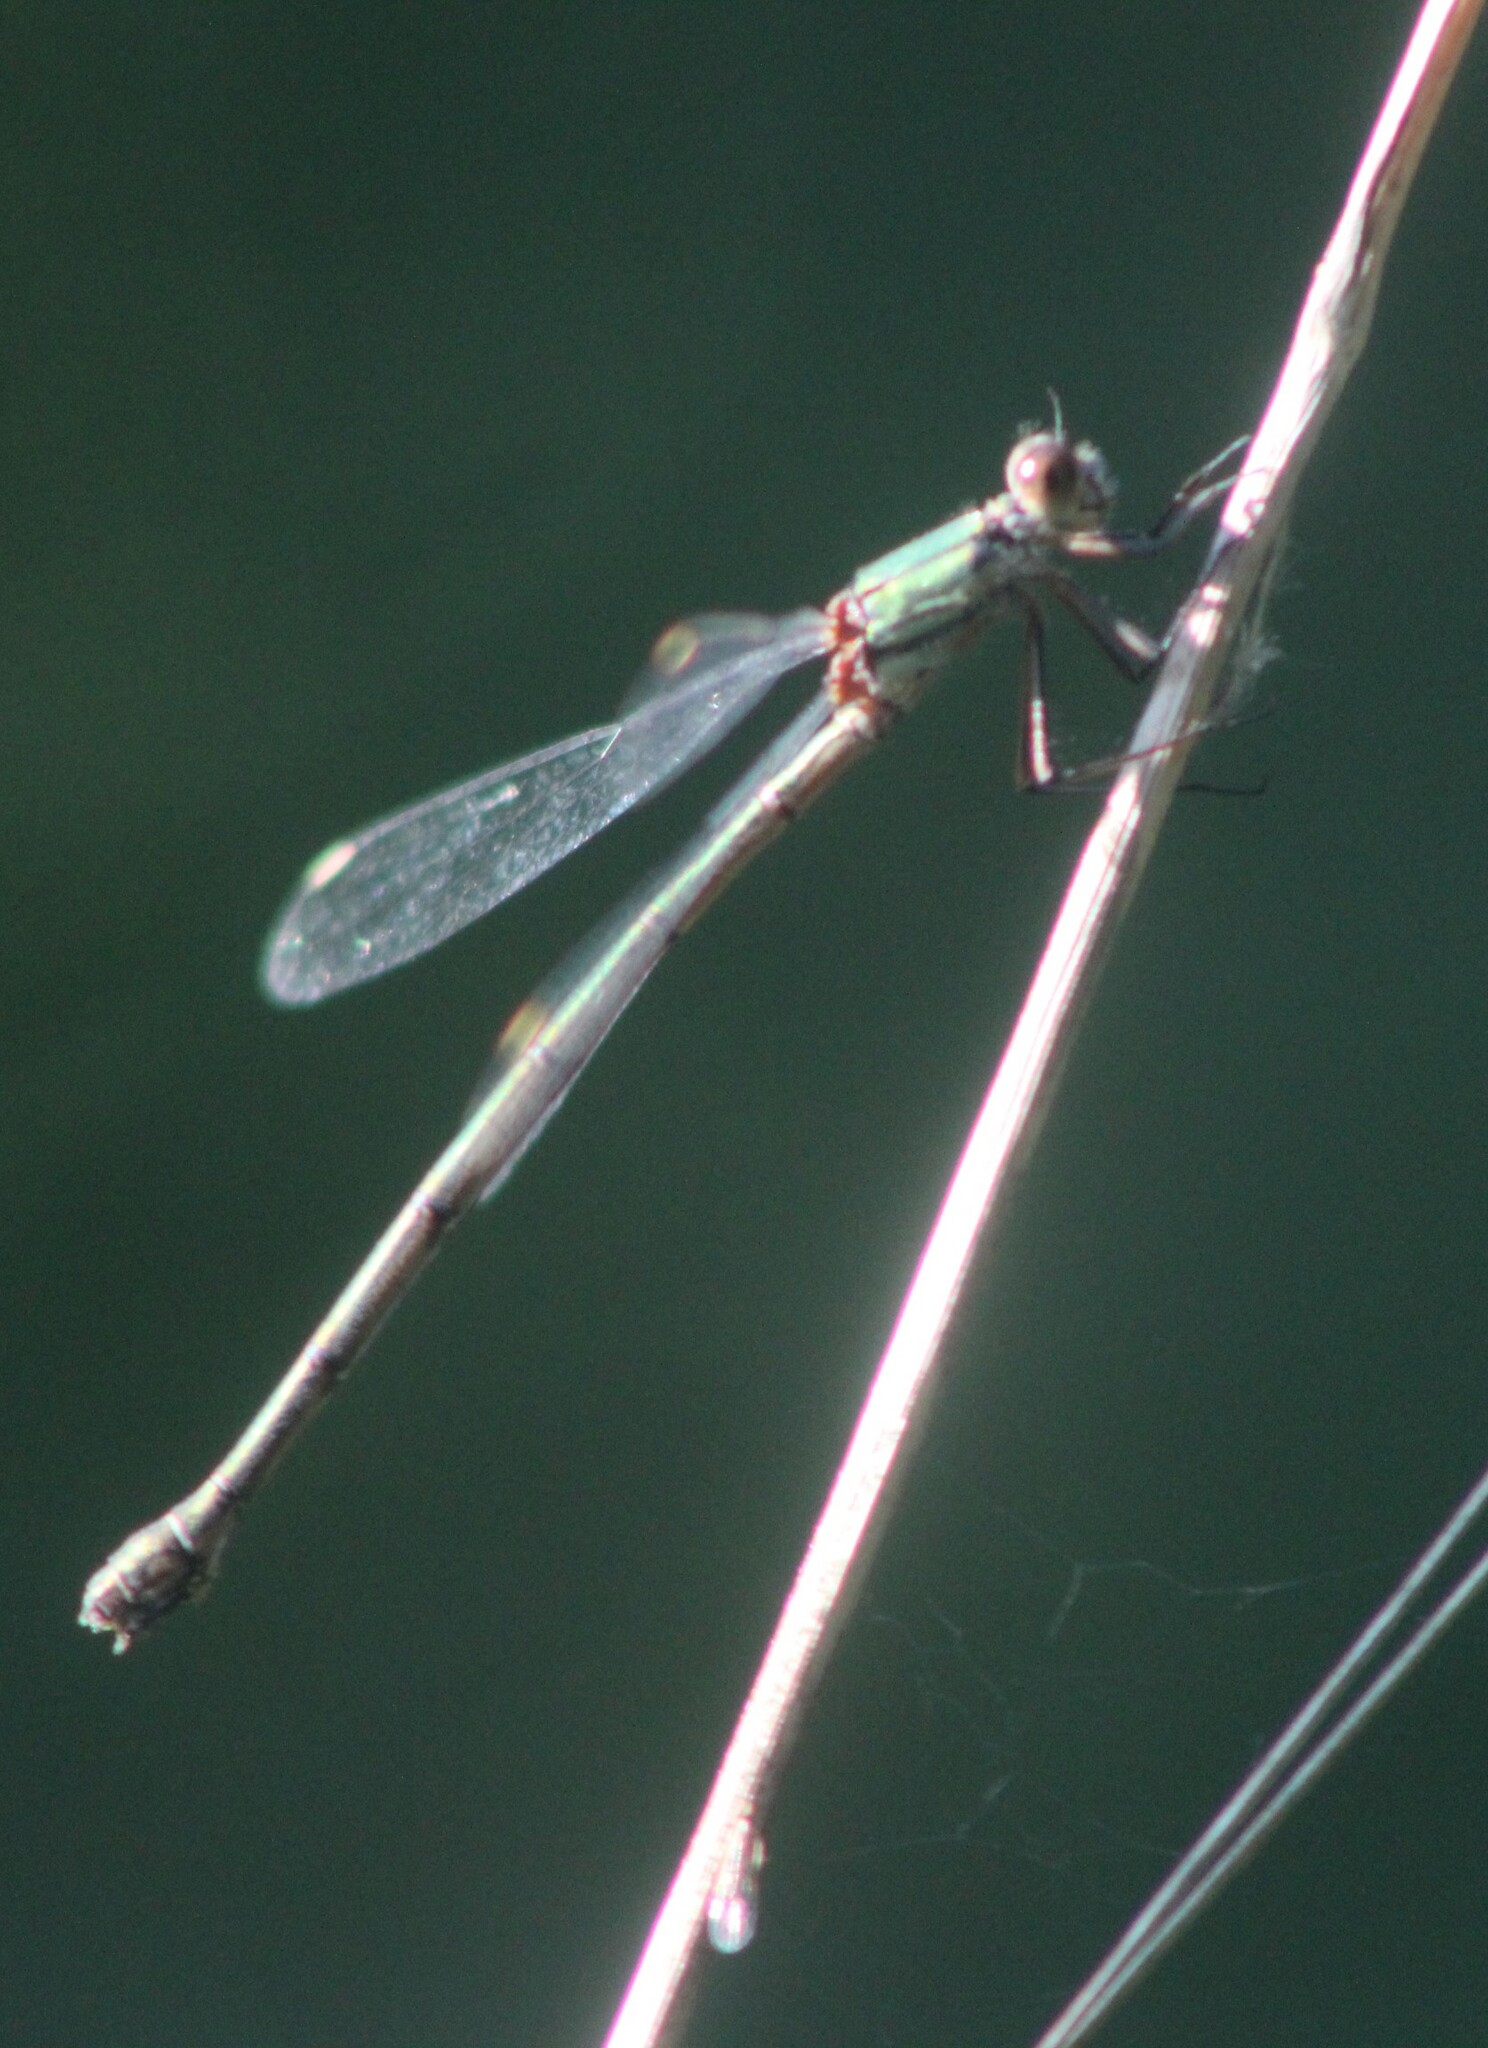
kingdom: Animalia
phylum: Arthropoda
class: Insecta
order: Odonata
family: Lestidae
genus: Chalcolestes
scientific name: Chalcolestes viridis
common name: Green emerald damselfly
